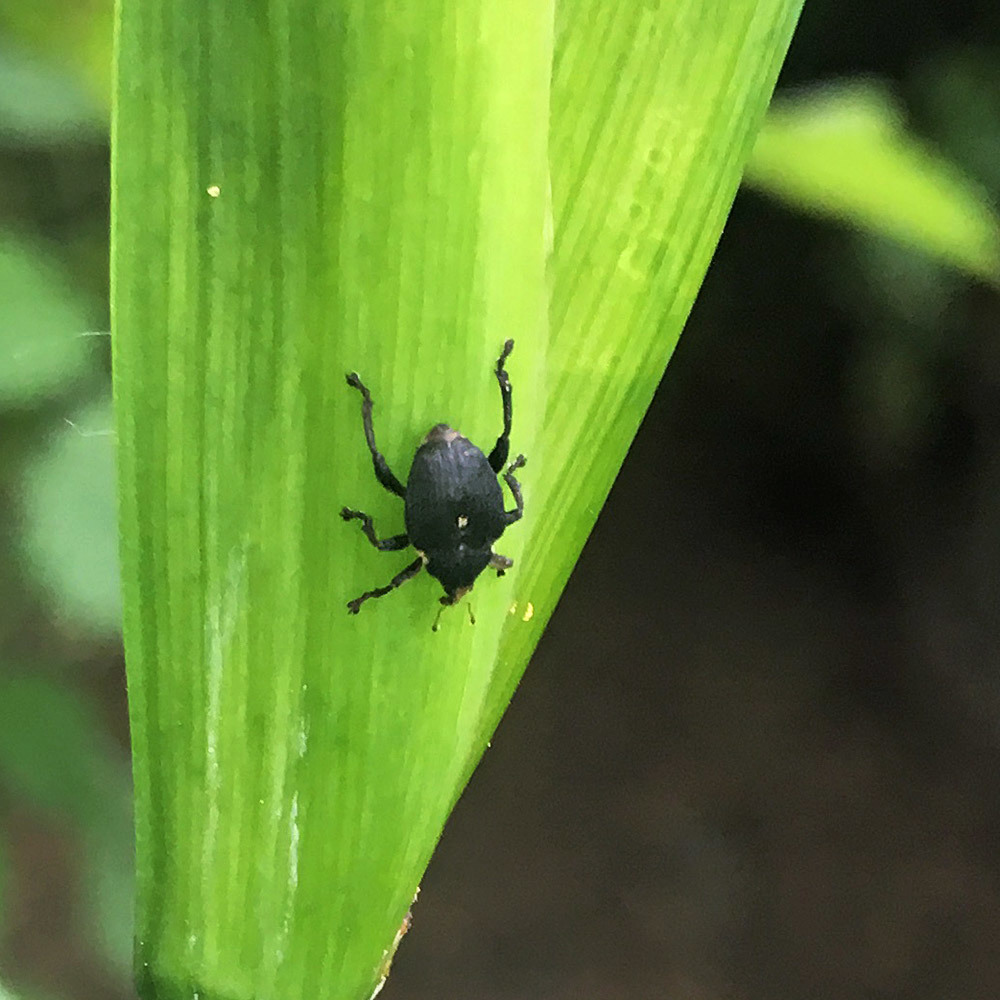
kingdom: Animalia
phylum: Arthropoda
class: Insecta
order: Coleoptera
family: Curculionidae
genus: Mononychus
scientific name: Mononychus punctumalbum
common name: Iris weevil
